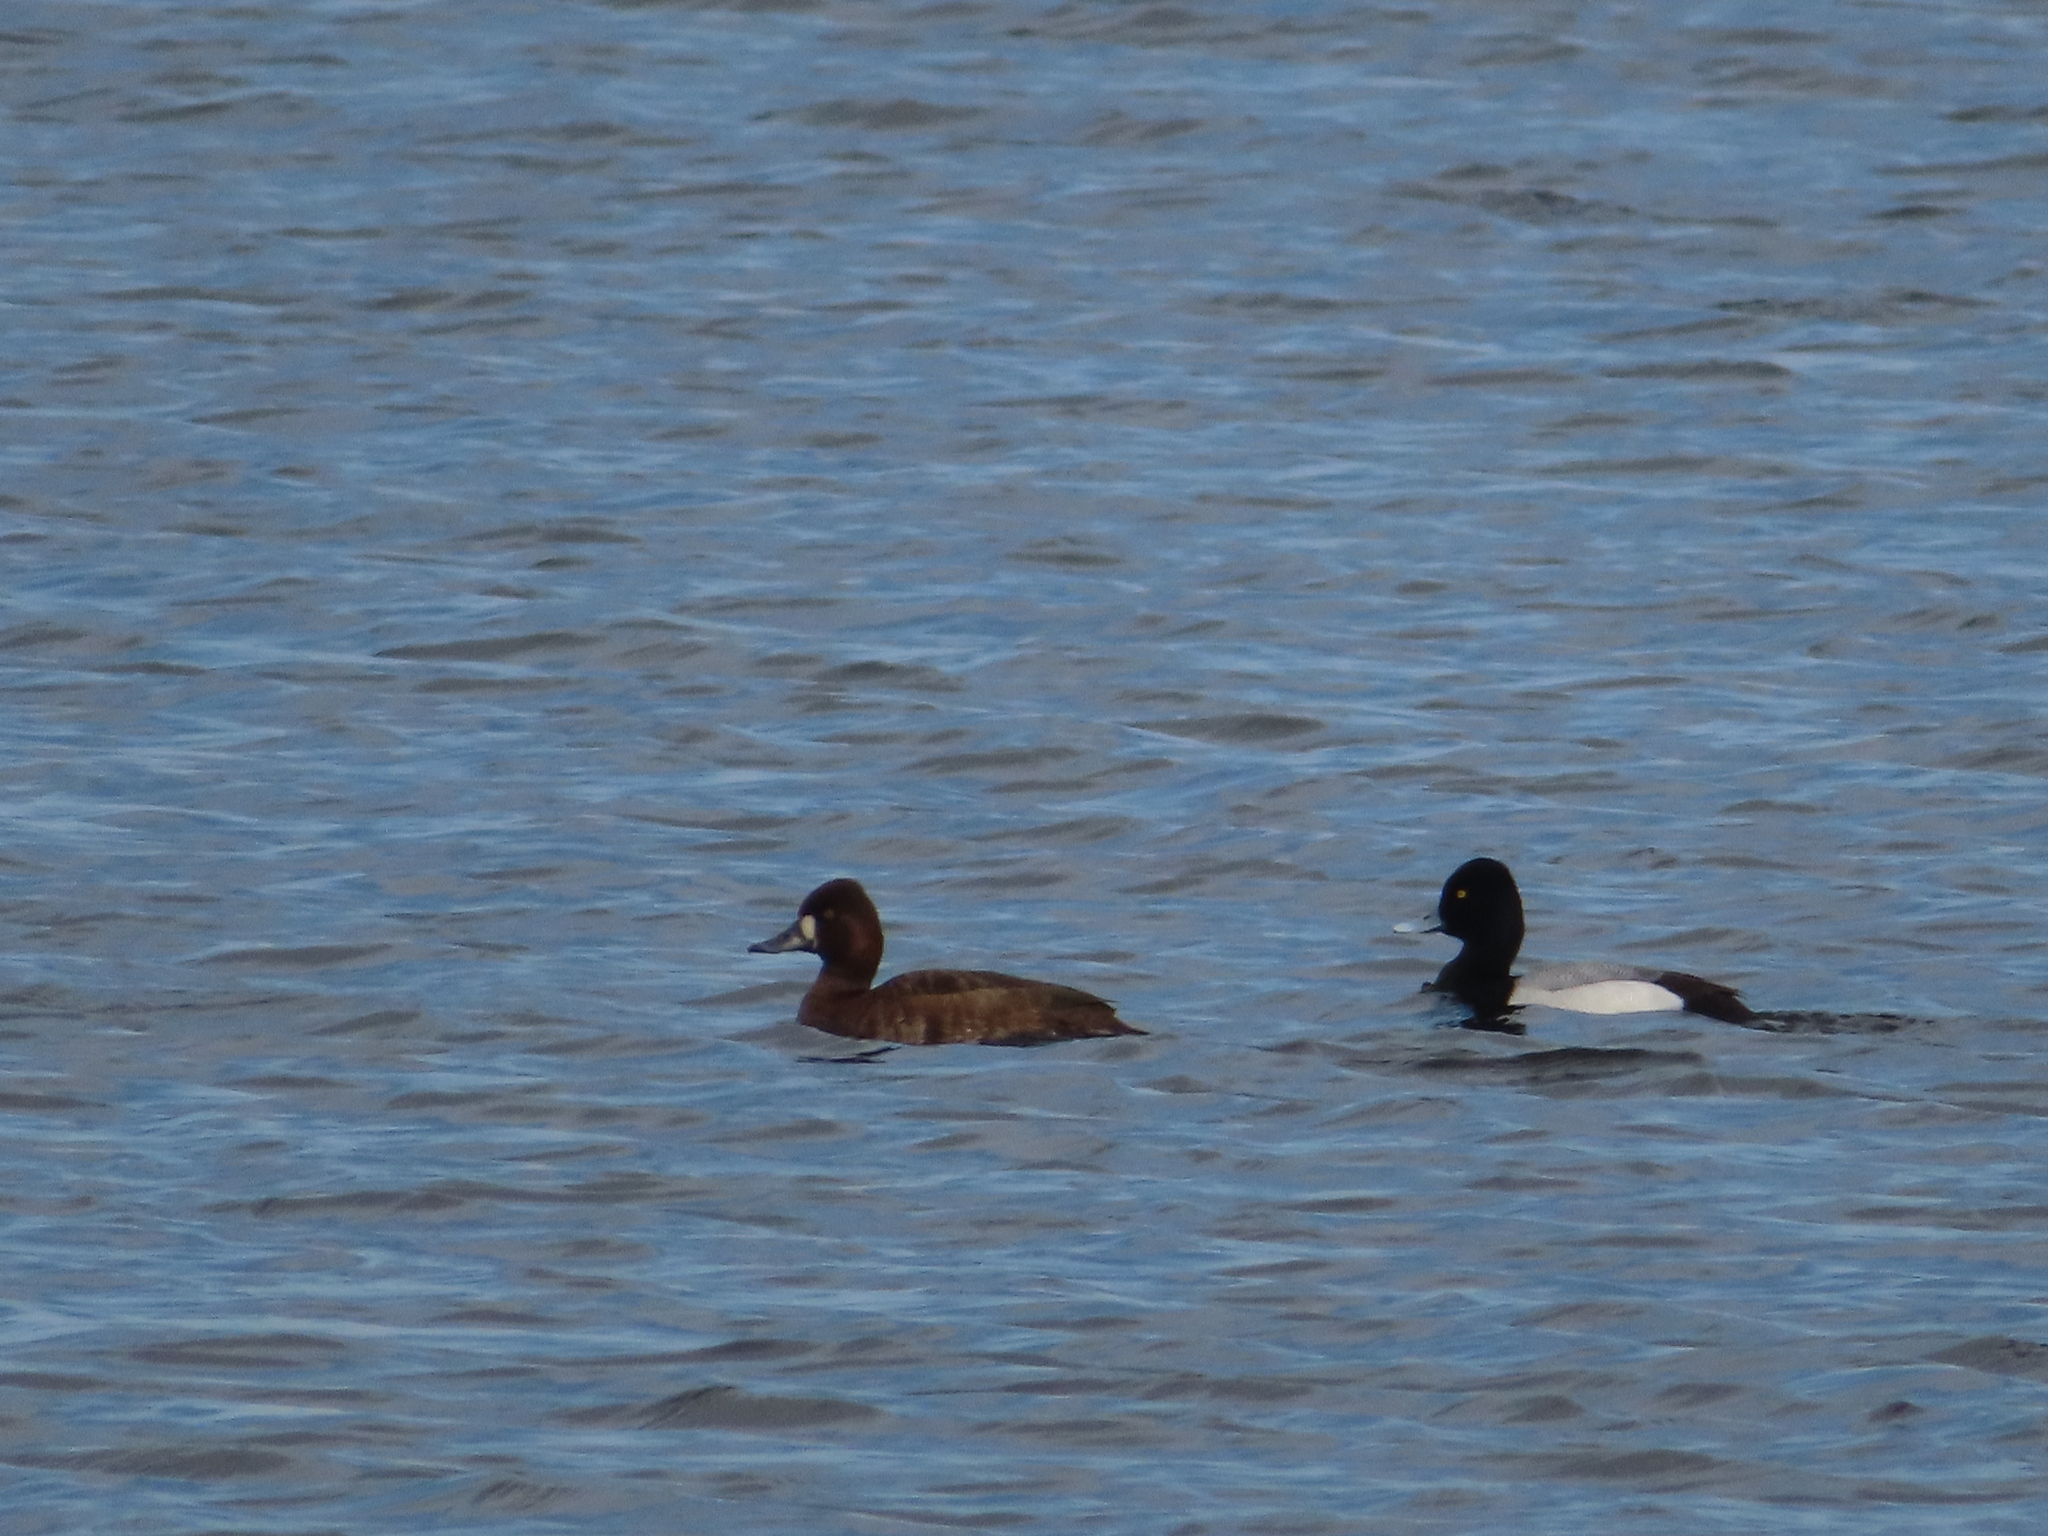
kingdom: Animalia
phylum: Chordata
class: Aves
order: Anseriformes
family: Anatidae
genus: Aythya
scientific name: Aythya affinis
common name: Lesser scaup
